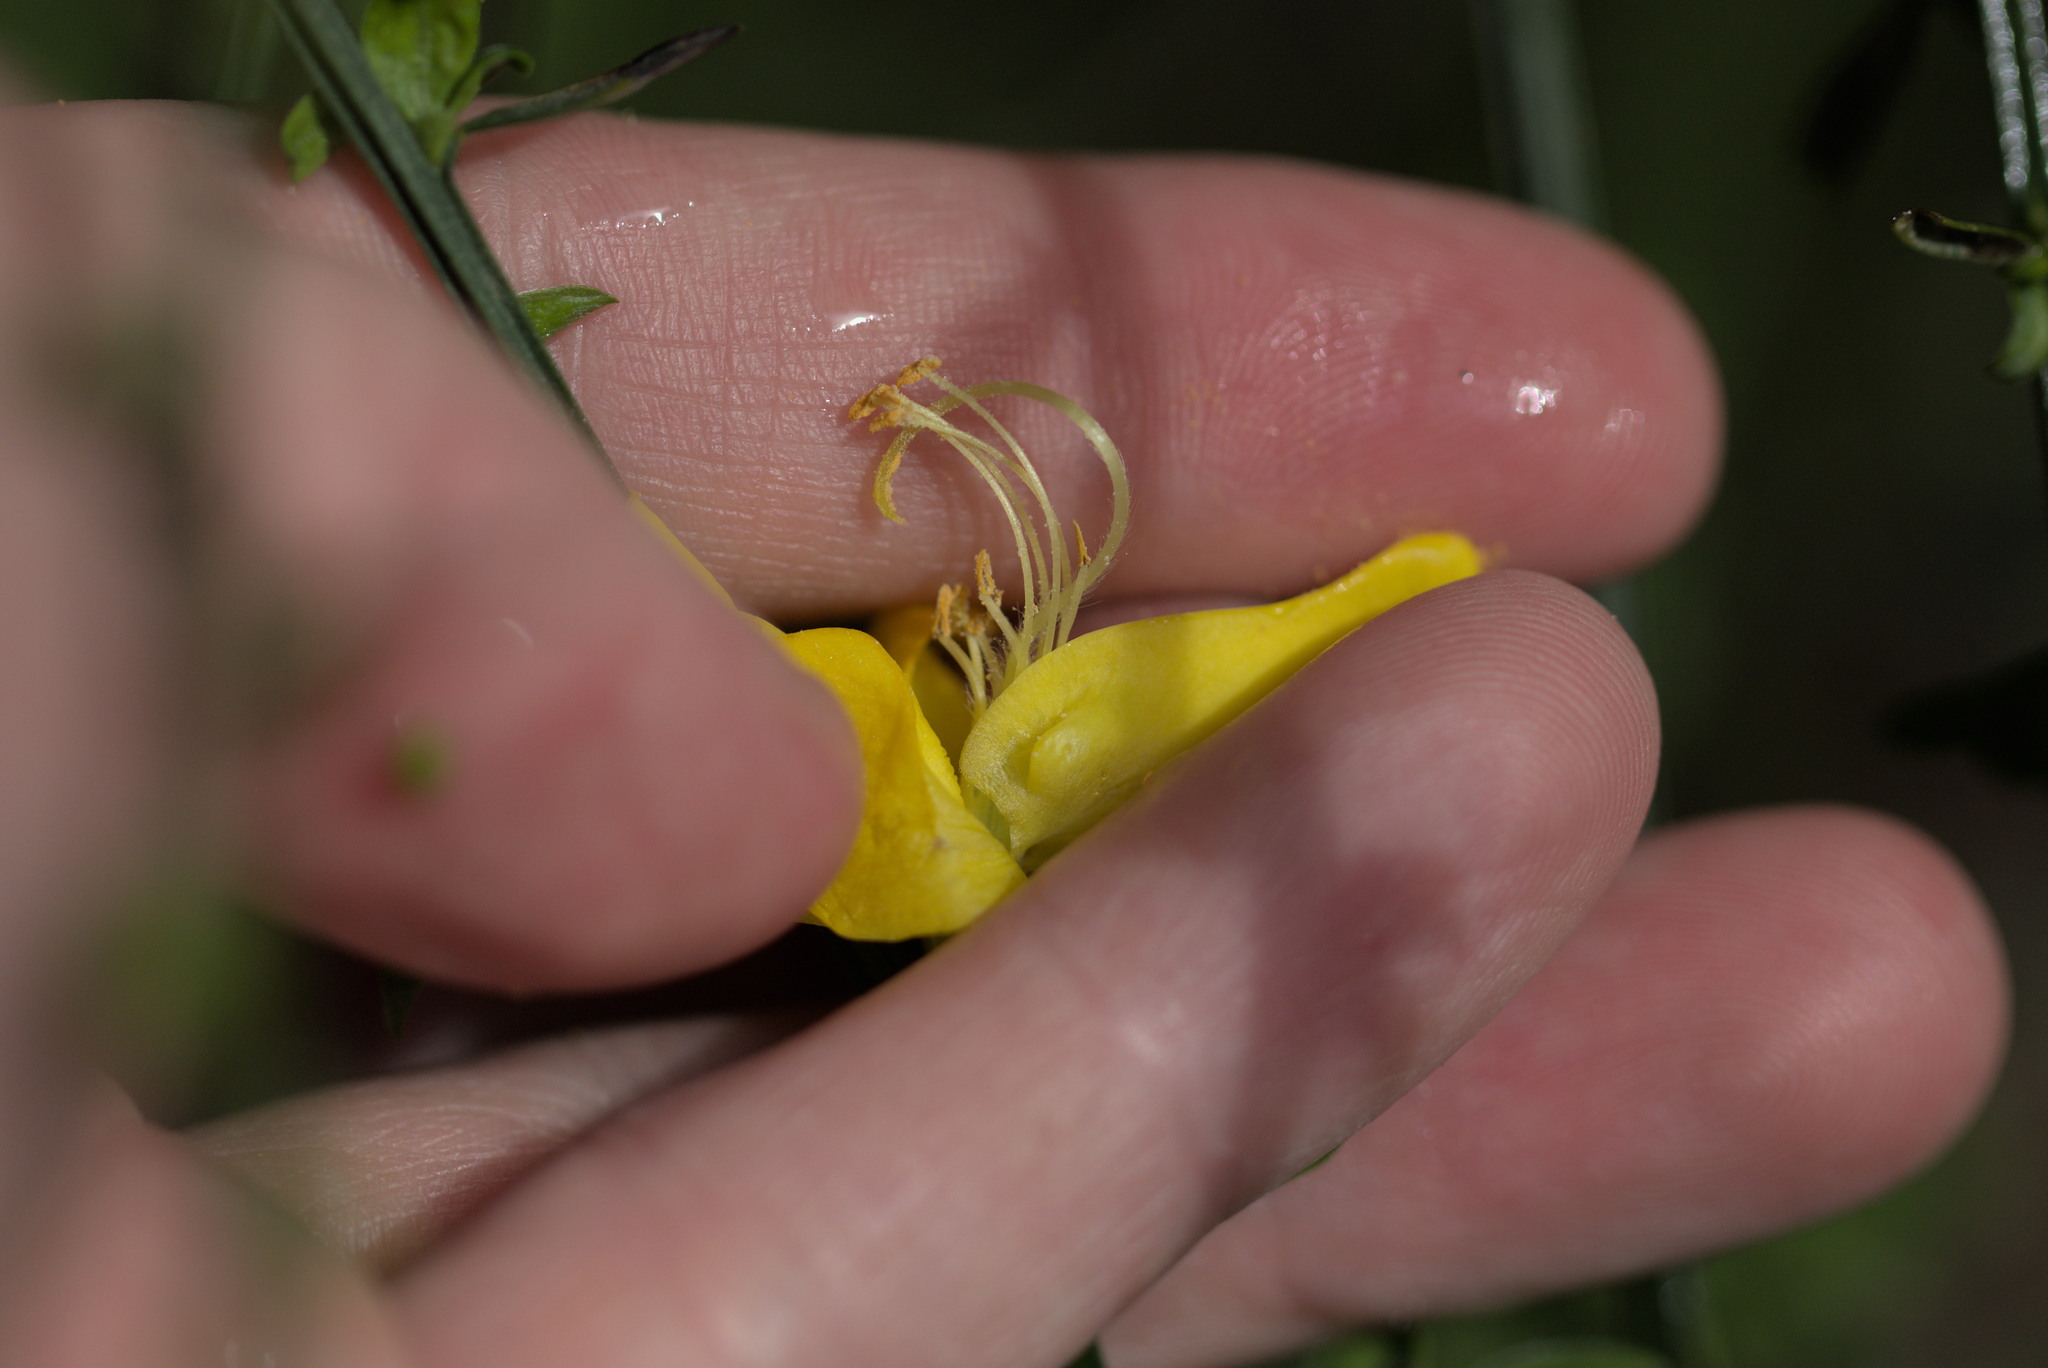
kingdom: Plantae
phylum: Tracheophyta
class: Magnoliopsida
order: Fabales
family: Fabaceae
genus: Cytisus
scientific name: Cytisus scoparius
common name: Scotch broom
